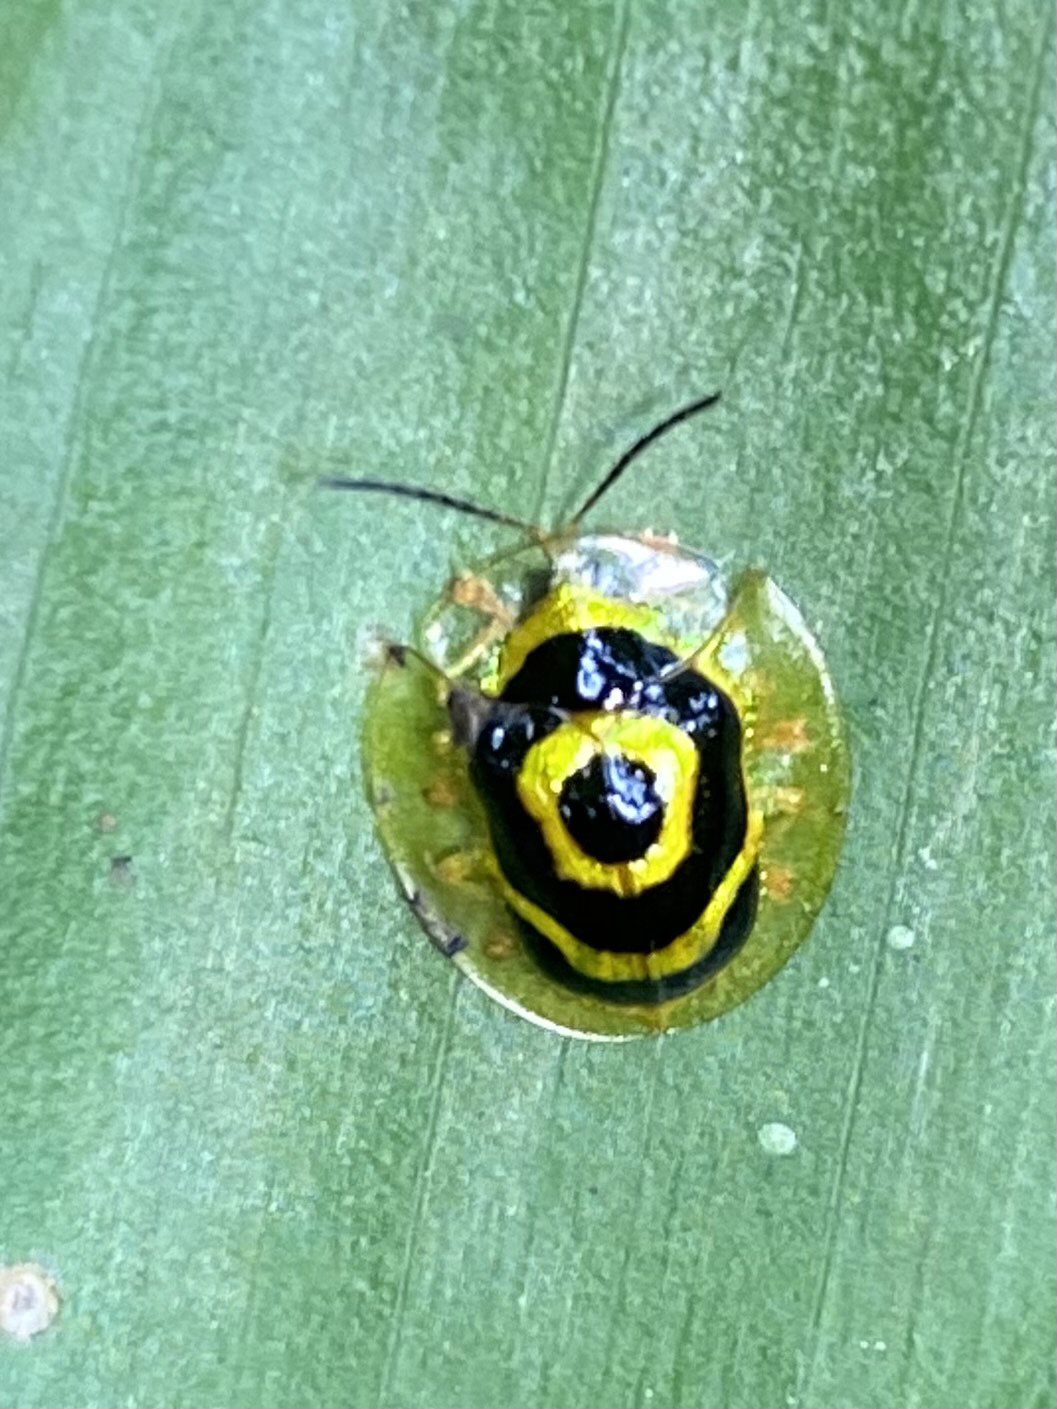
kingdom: Animalia
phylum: Arthropoda
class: Insecta
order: Coleoptera
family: Chrysomelidae
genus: Ischnocodia
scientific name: Ischnocodia annulus
